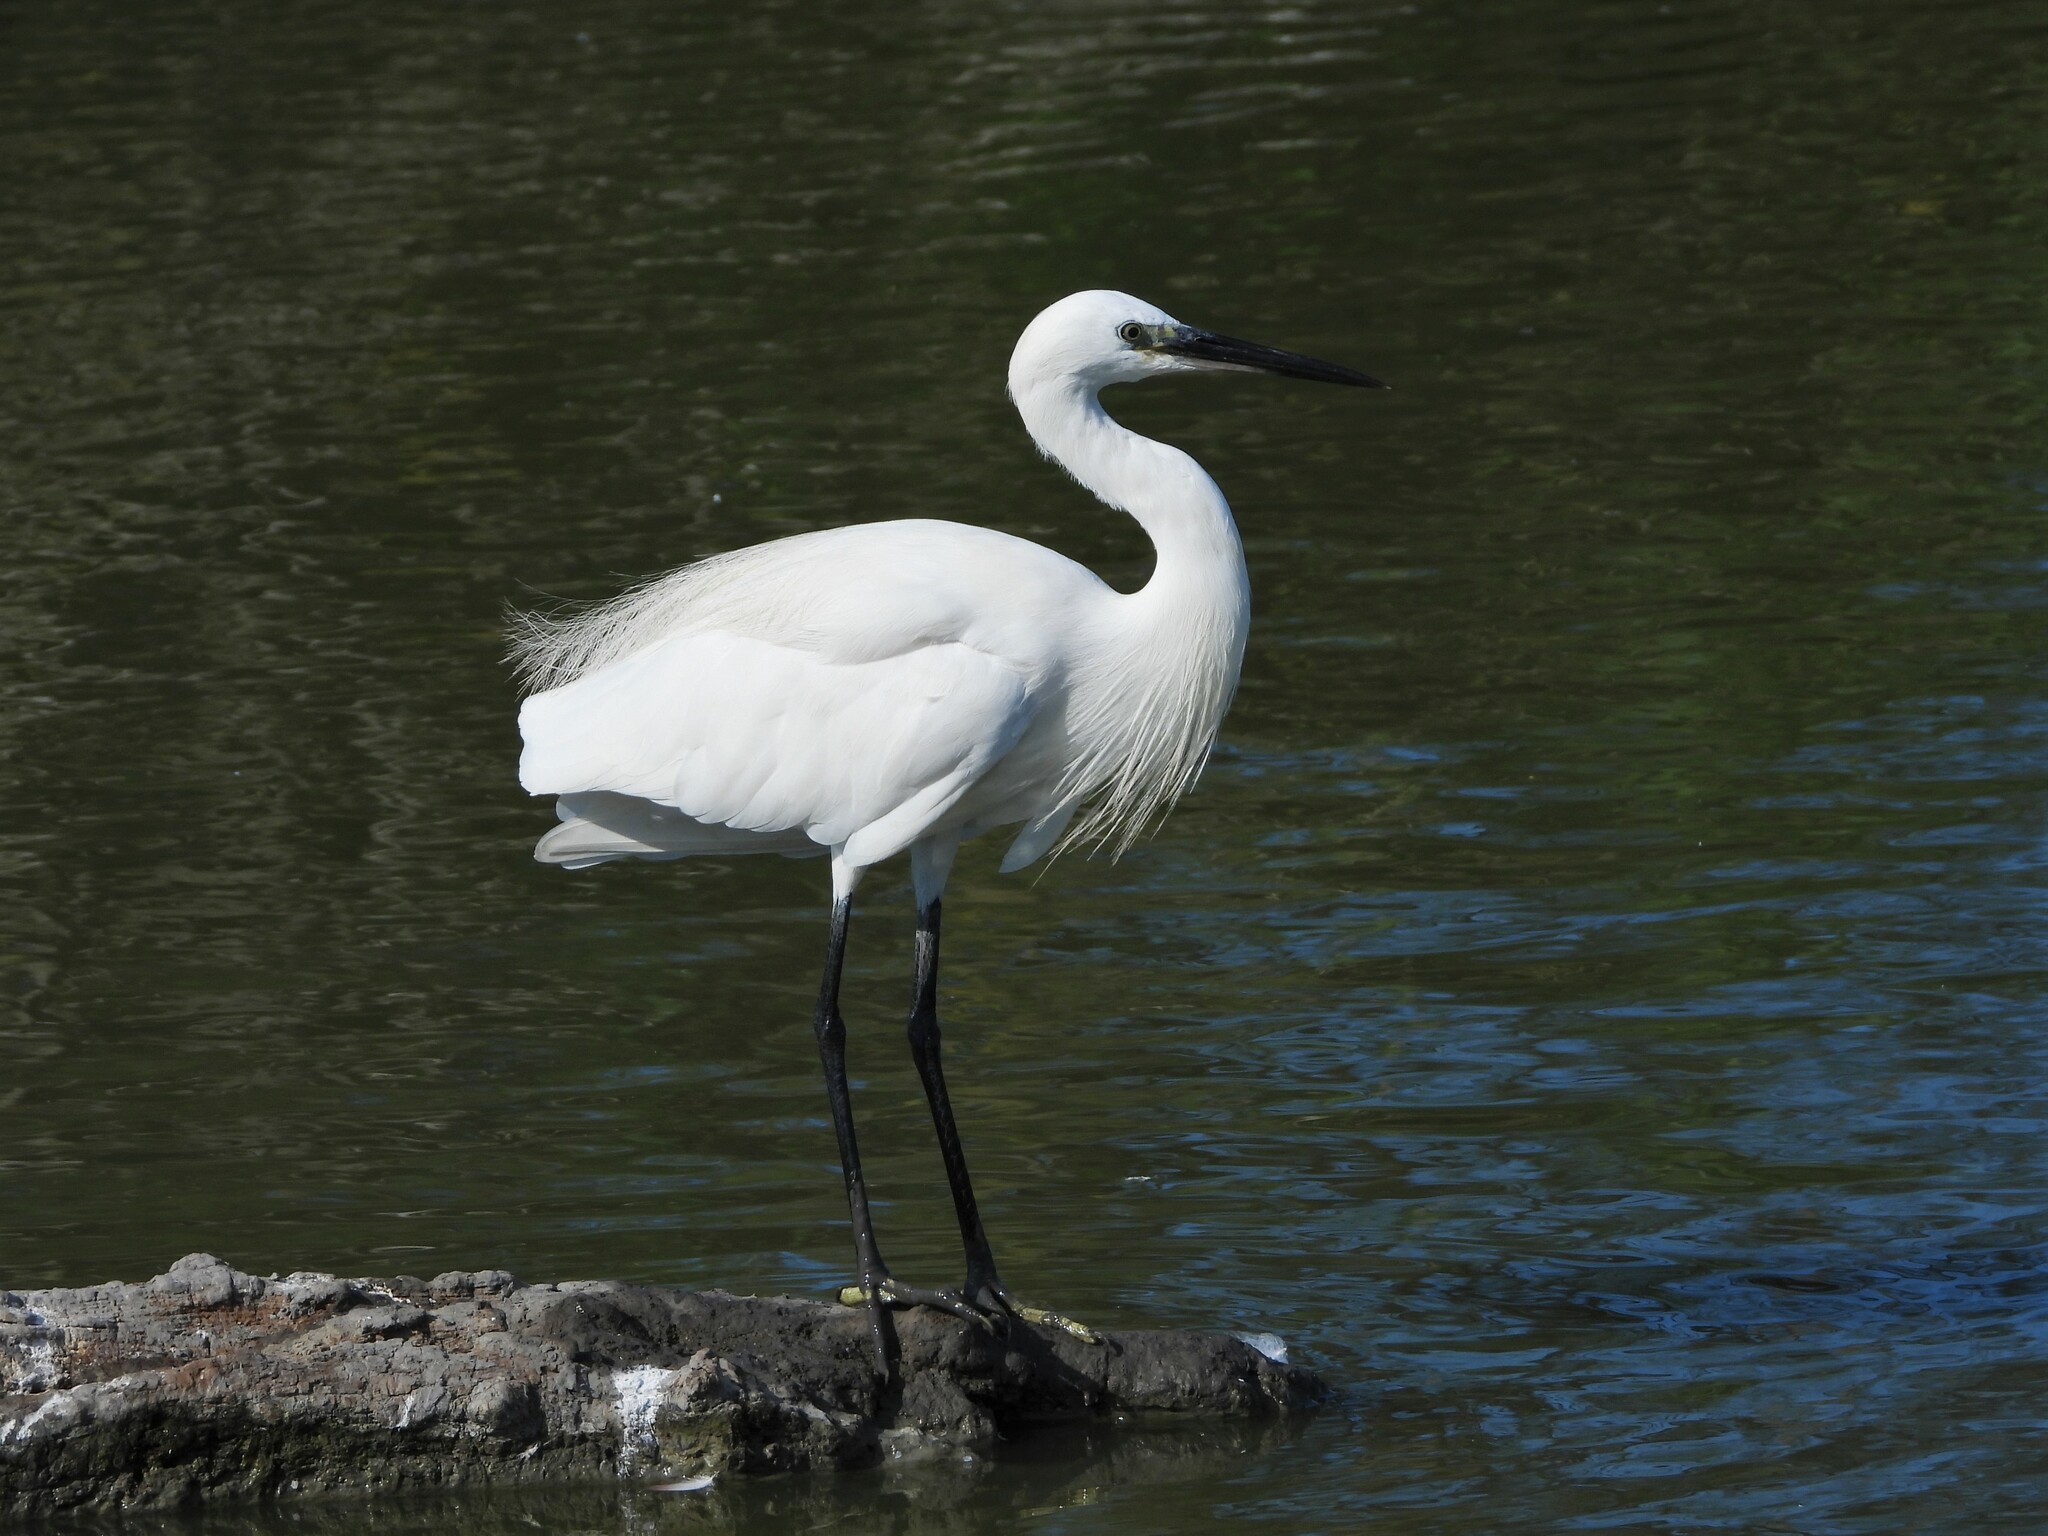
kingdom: Animalia
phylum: Chordata
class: Aves
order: Pelecaniformes
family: Ardeidae
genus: Egretta
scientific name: Egretta garzetta
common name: Little egret
